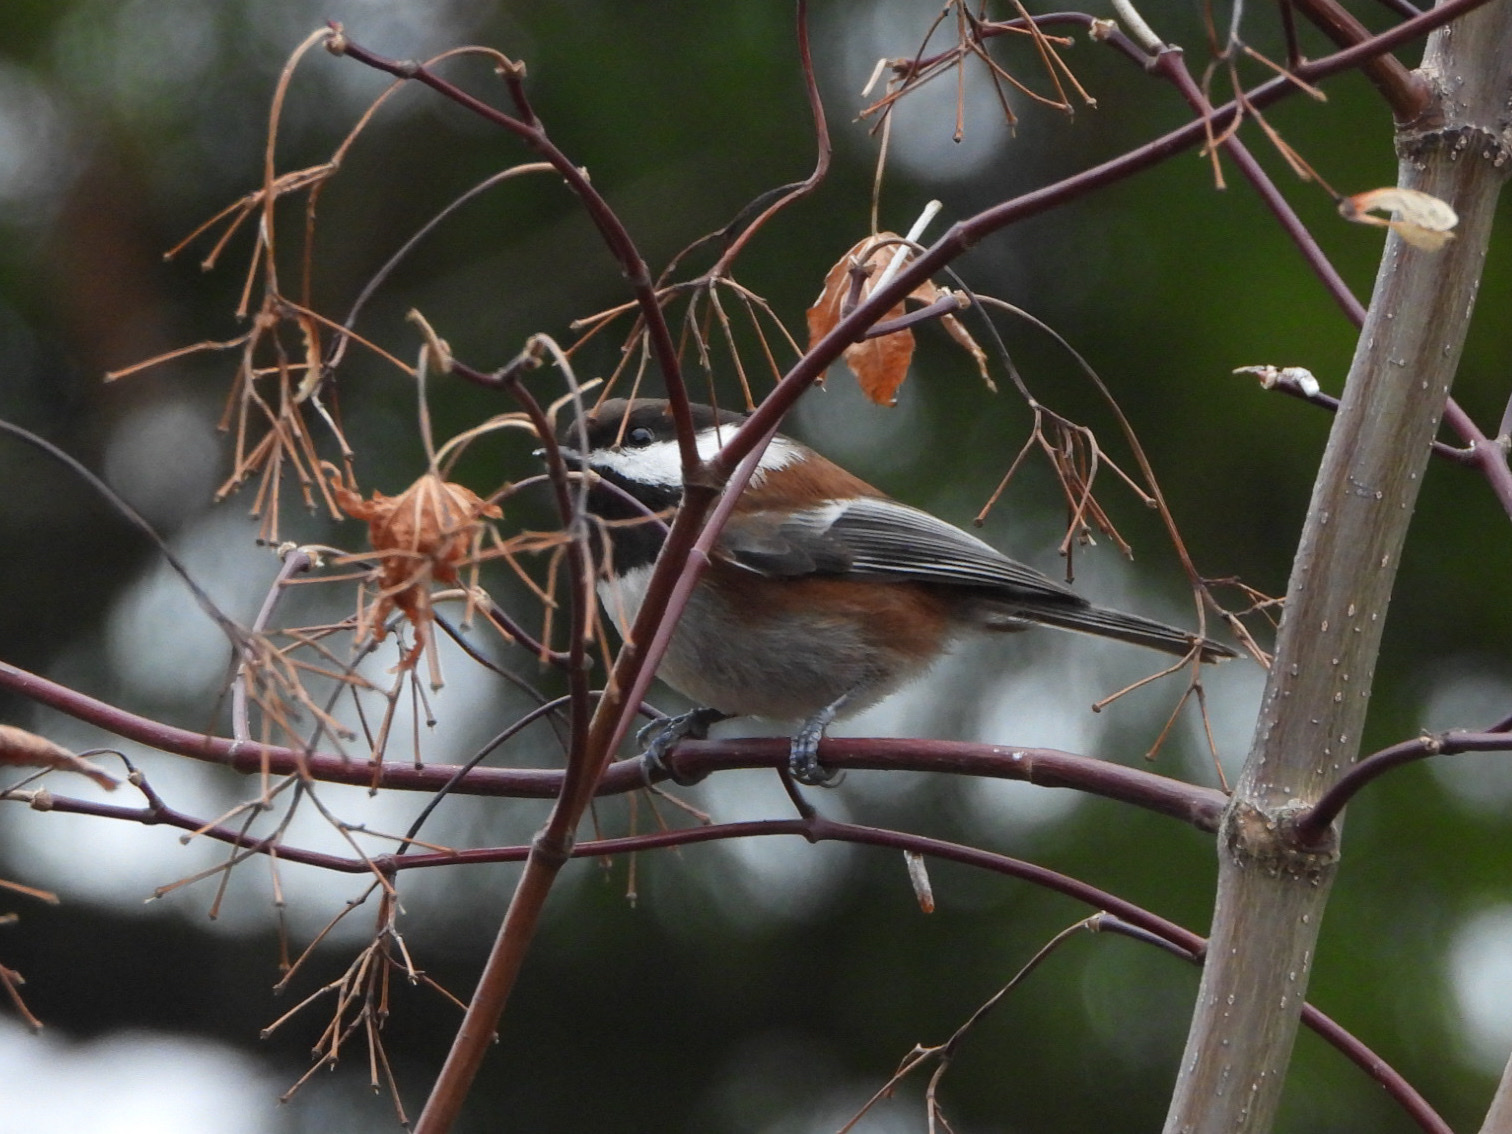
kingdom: Animalia
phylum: Chordata
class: Aves
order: Passeriformes
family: Paridae
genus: Poecile
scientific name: Poecile rufescens
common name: Chestnut-backed chickadee
